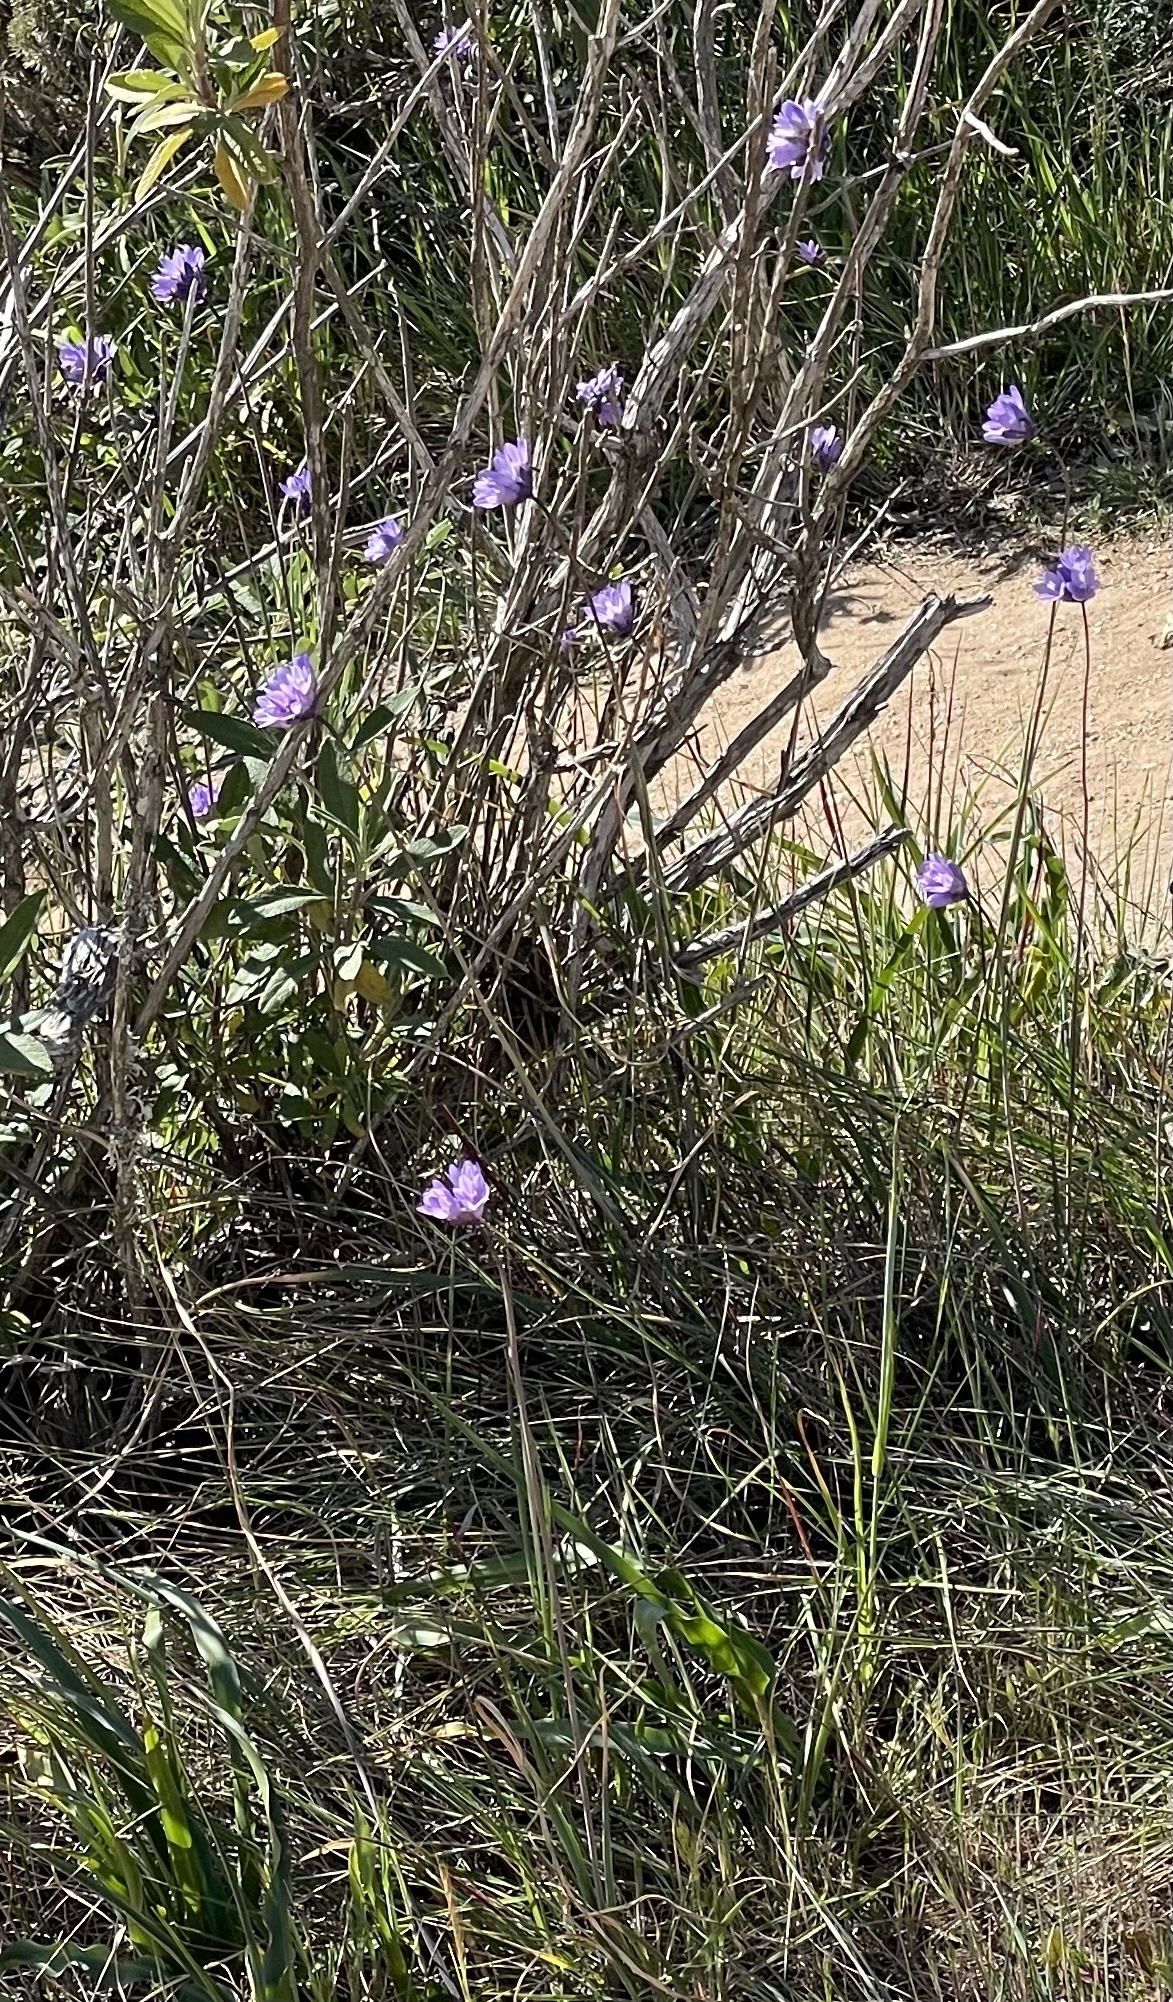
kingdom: Plantae
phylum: Tracheophyta
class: Liliopsida
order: Asparagales
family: Asparagaceae
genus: Dipterostemon
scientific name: Dipterostemon capitatus
